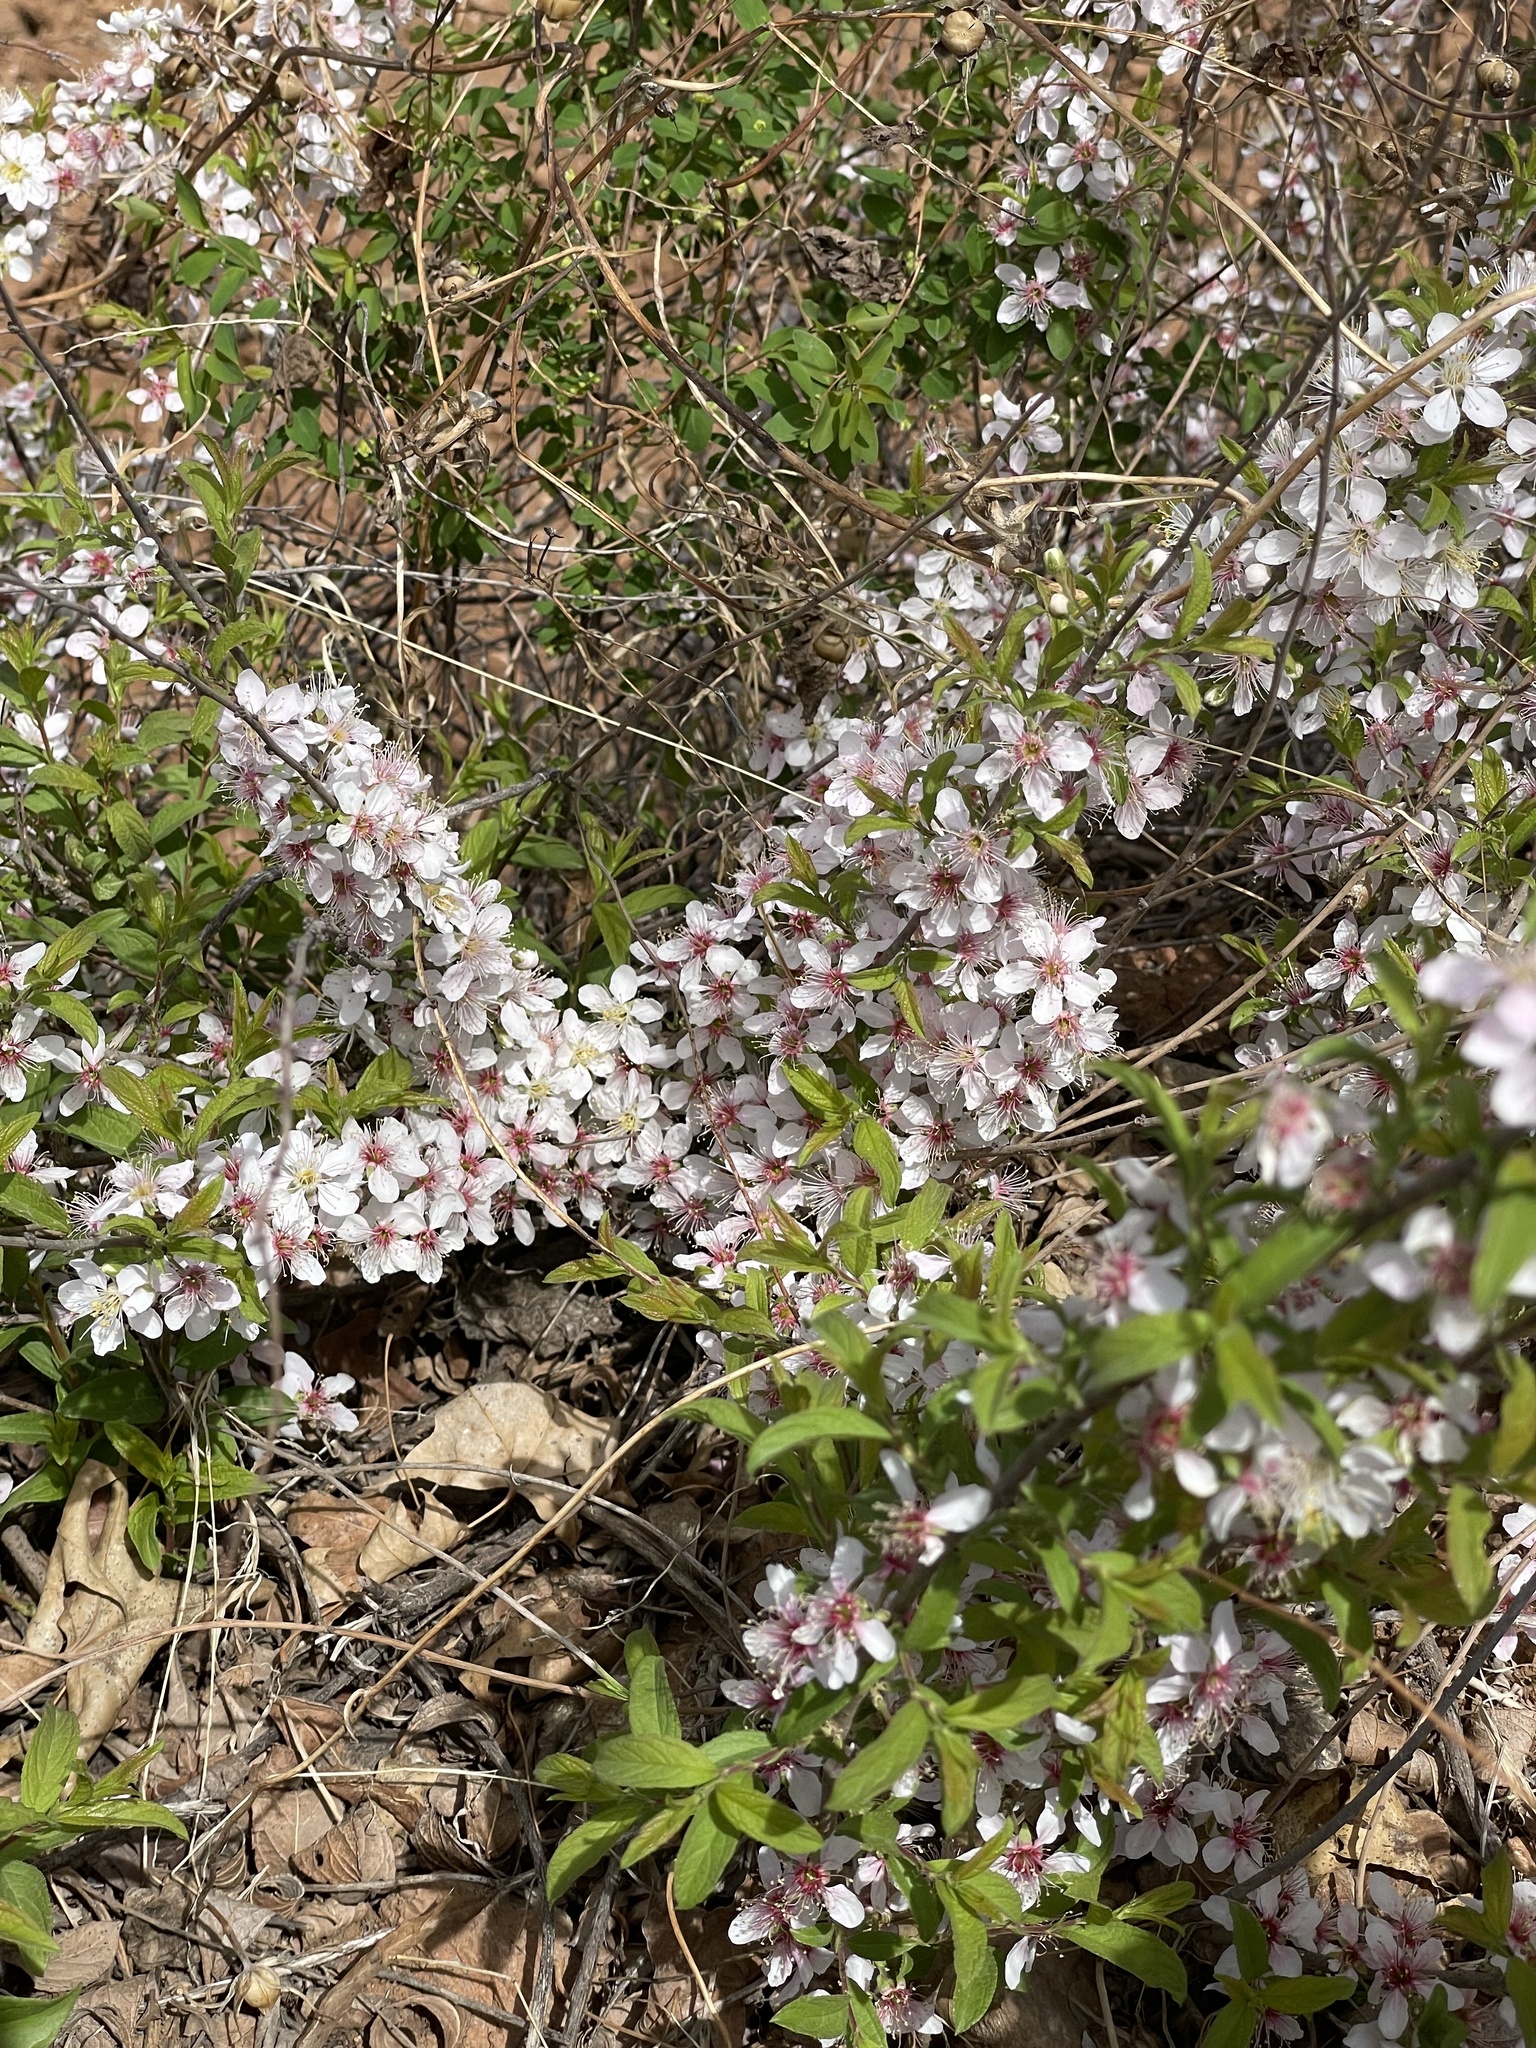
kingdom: Plantae
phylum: Tracheophyta
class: Magnoliopsida
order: Rosales
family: Rosaceae
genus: Prunus
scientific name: Prunus humilis
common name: Humble bush cherry
